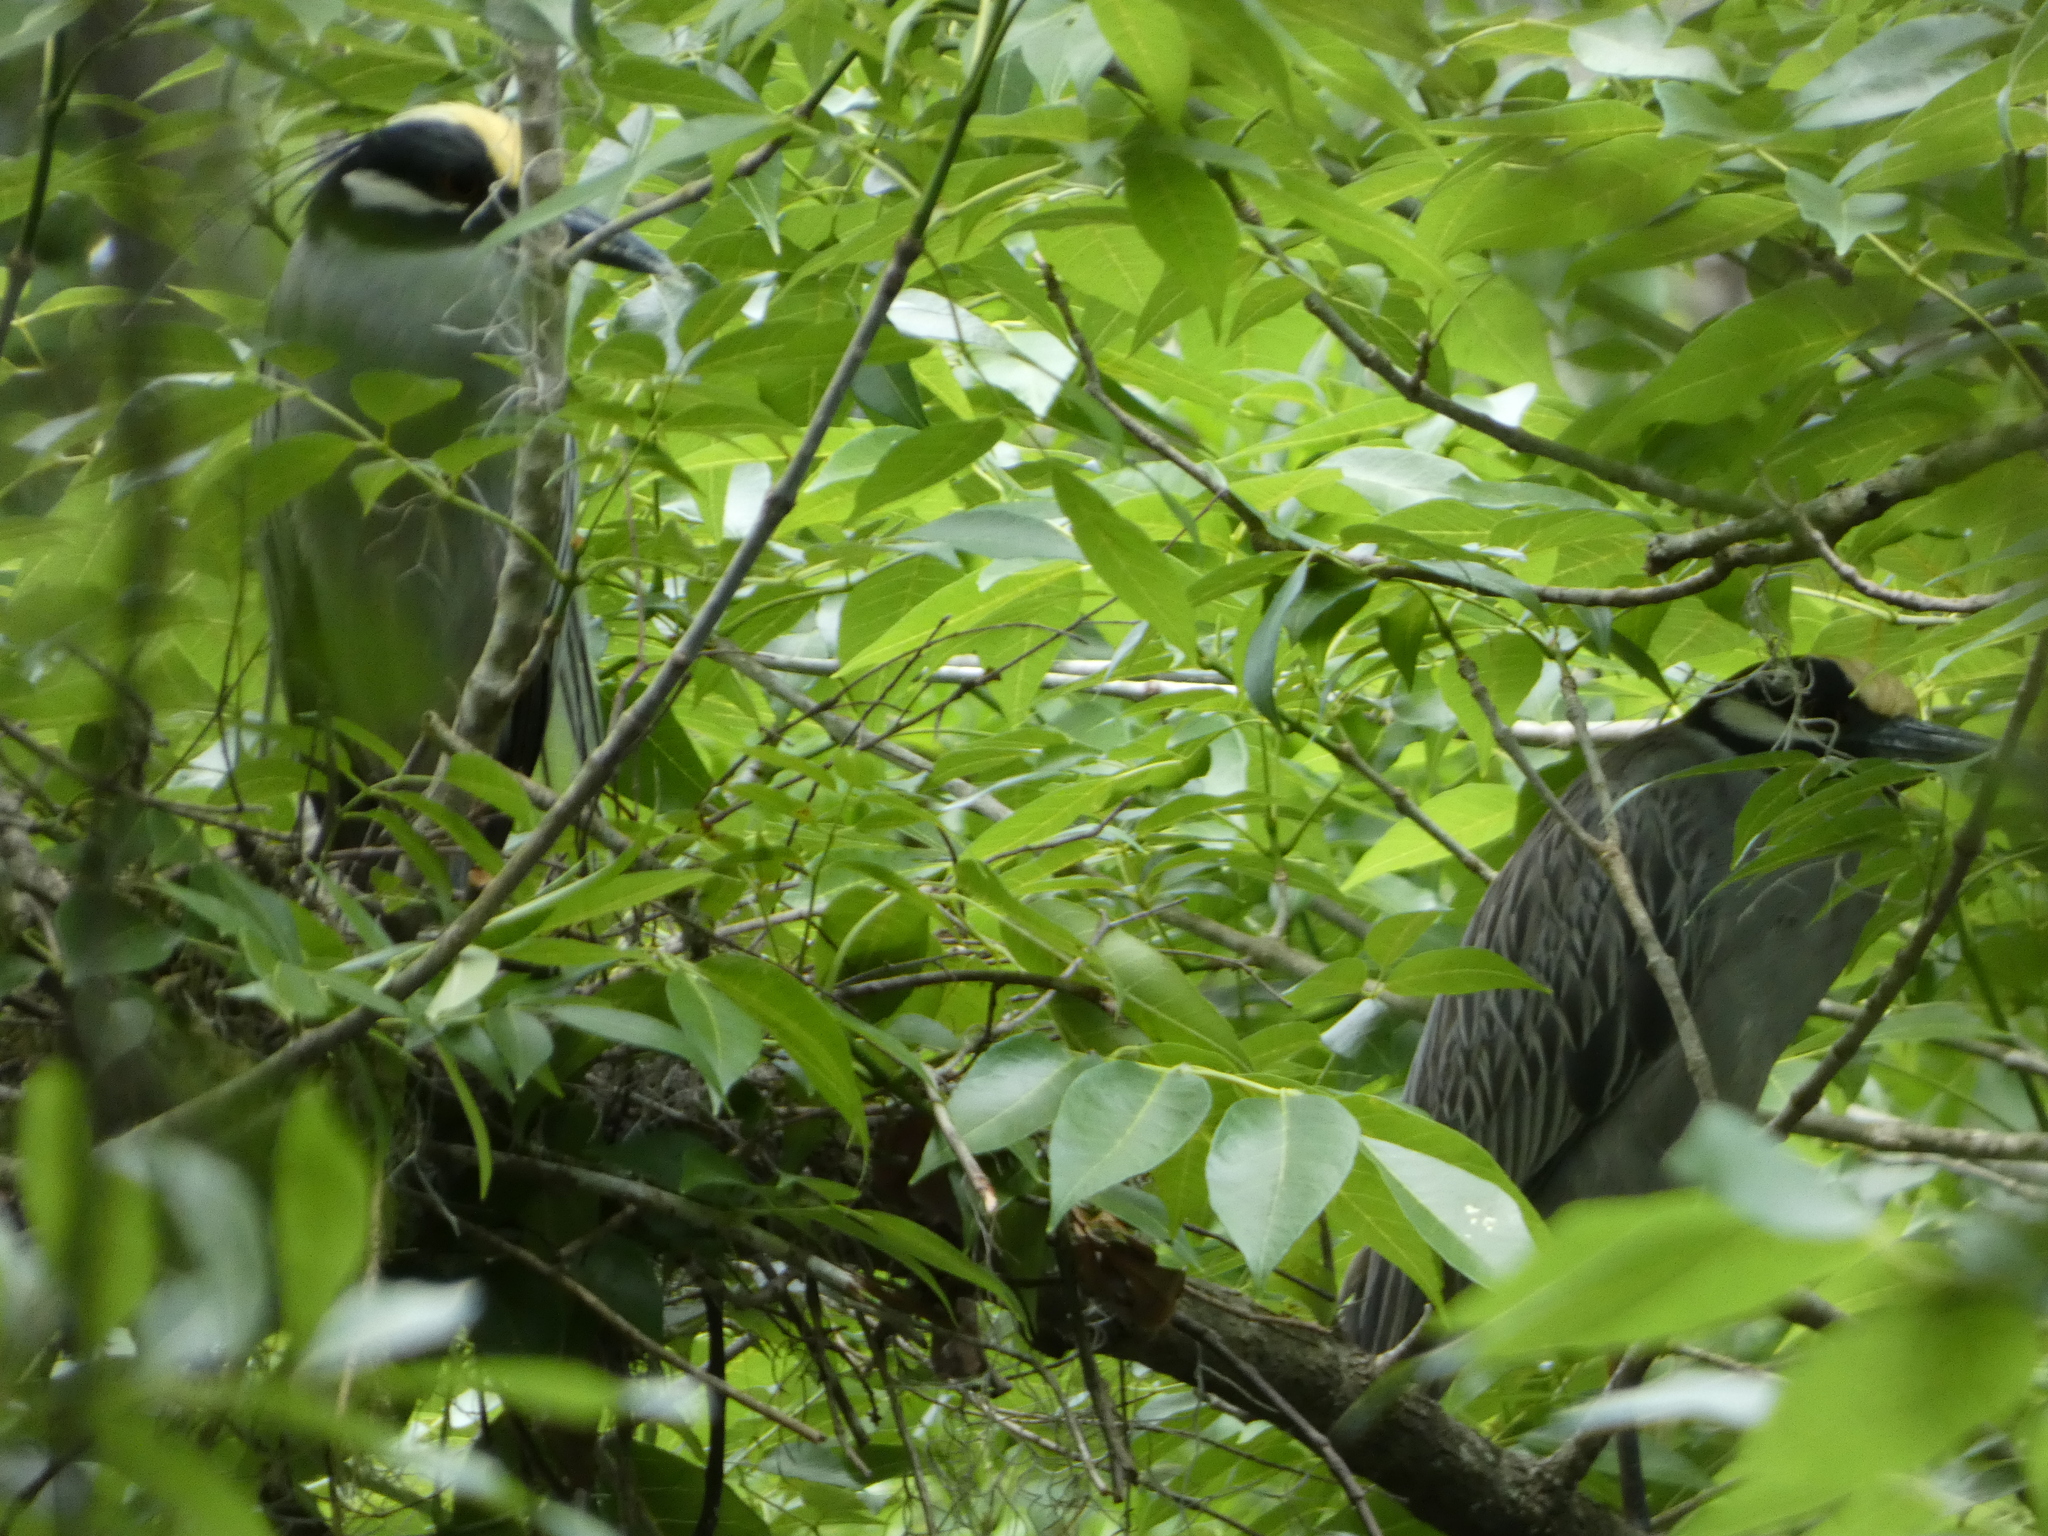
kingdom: Animalia
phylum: Chordata
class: Aves
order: Pelecaniformes
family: Ardeidae
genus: Nyctanassa
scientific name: Nyctanassa violacea
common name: Yellow-crowned night heron
